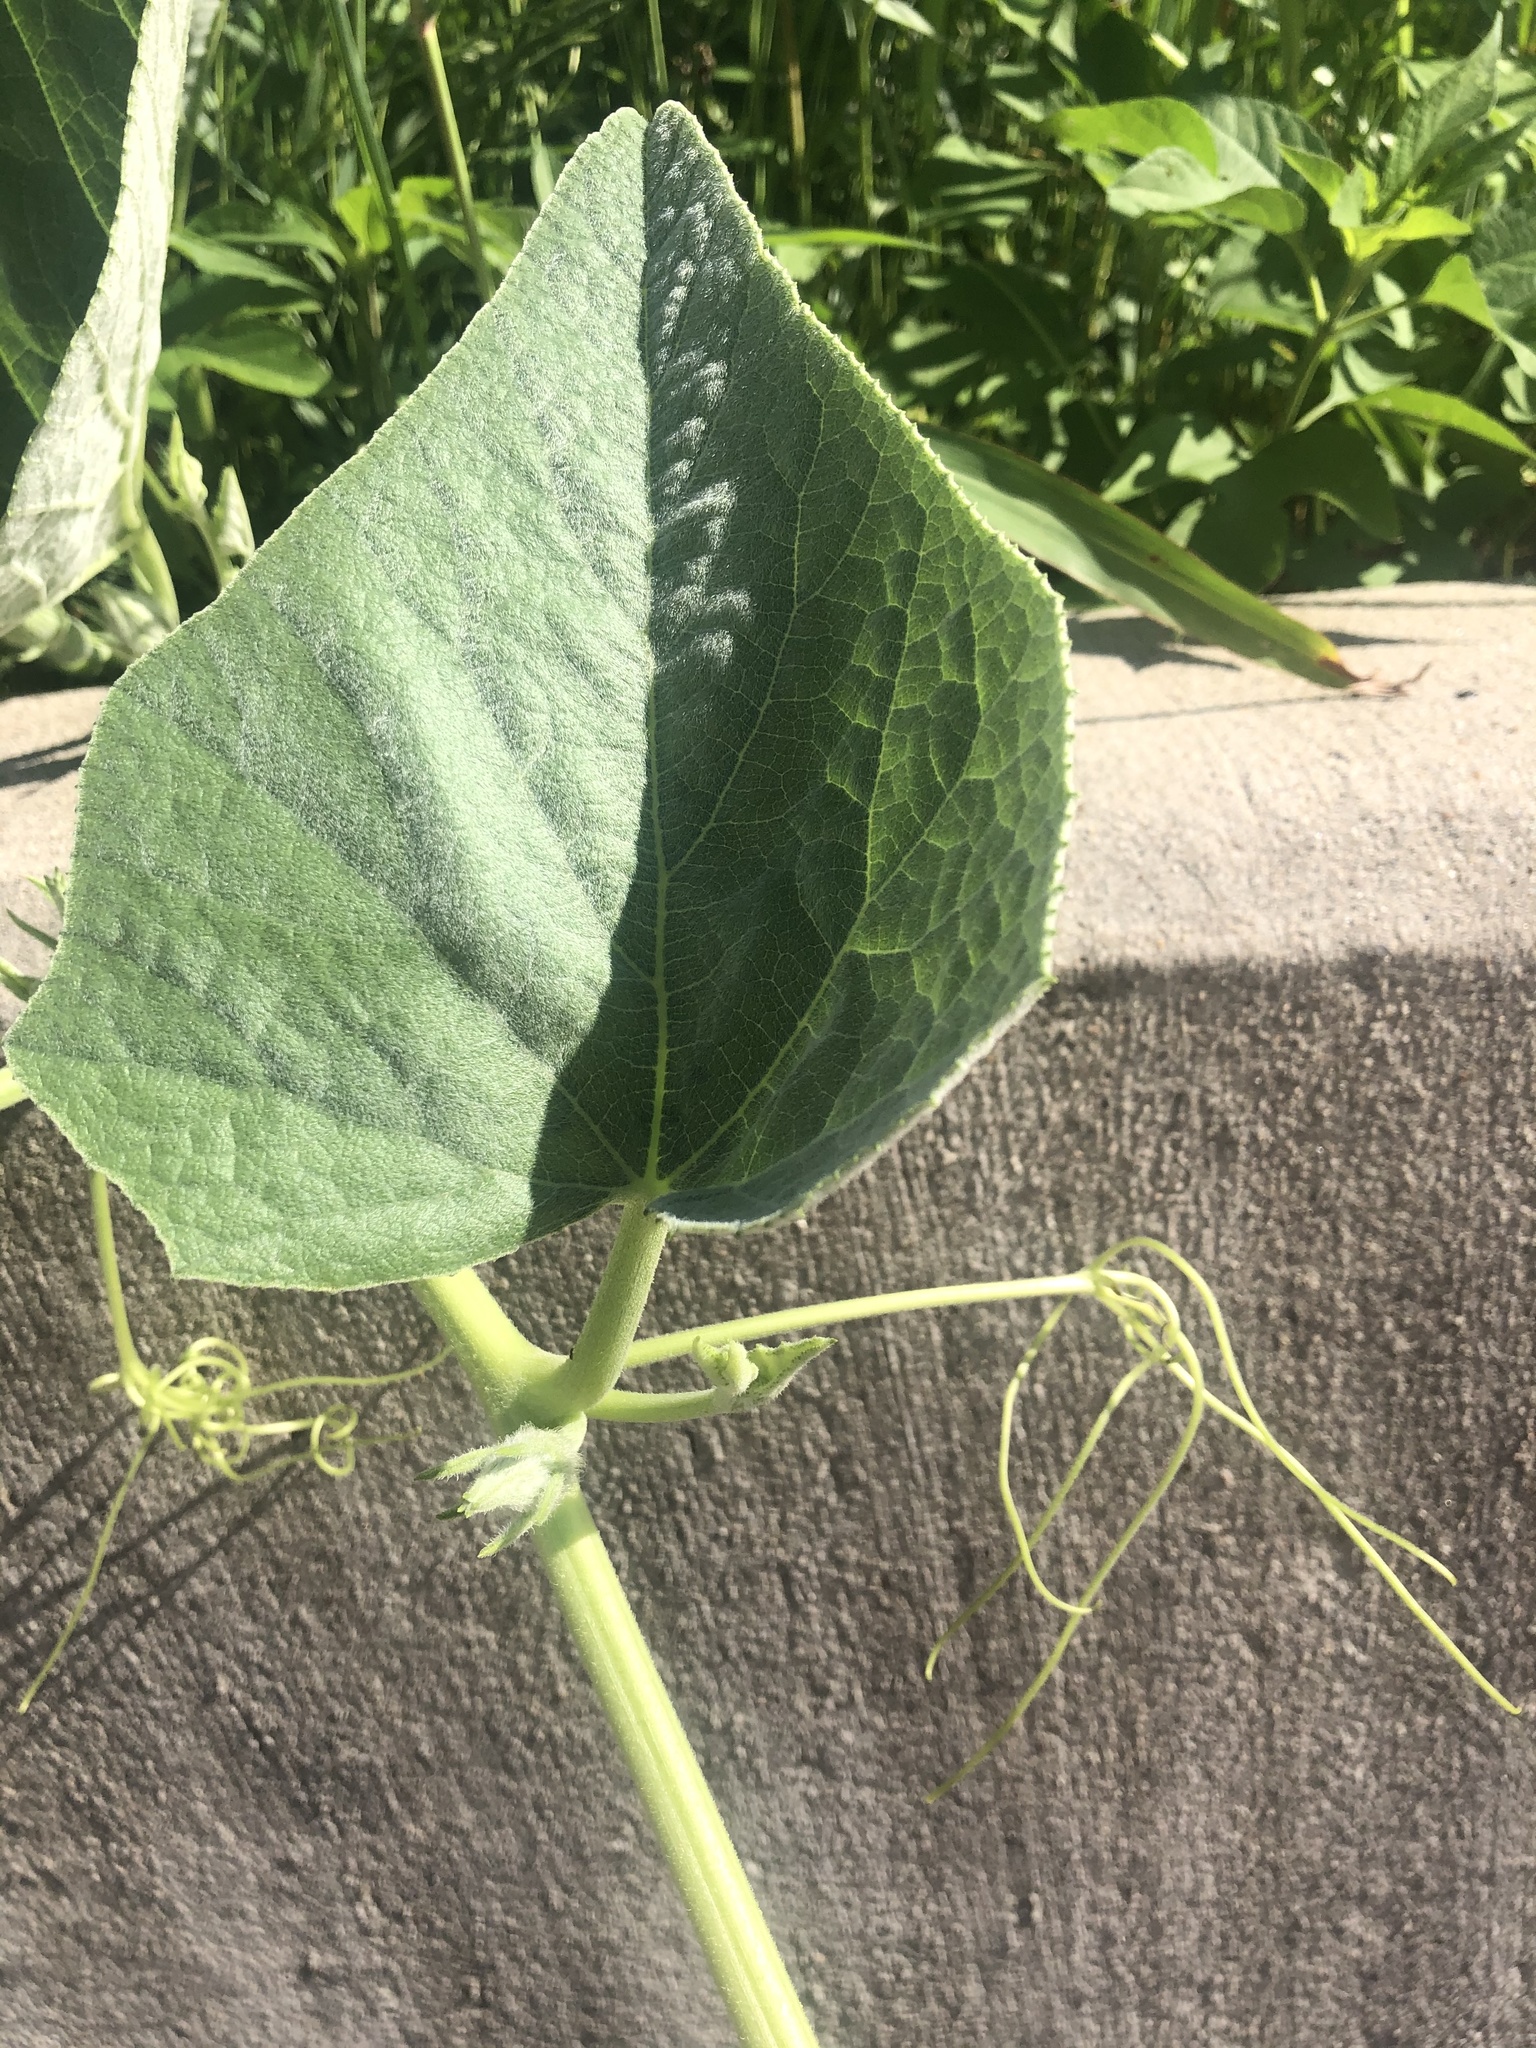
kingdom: Plantae
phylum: Tracheophyta
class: Magnoliopsida
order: Cucurbitales
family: Cucurbitaceae
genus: Cucurbita
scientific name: Cucurbita foetidissima
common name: Buffalo gourd
